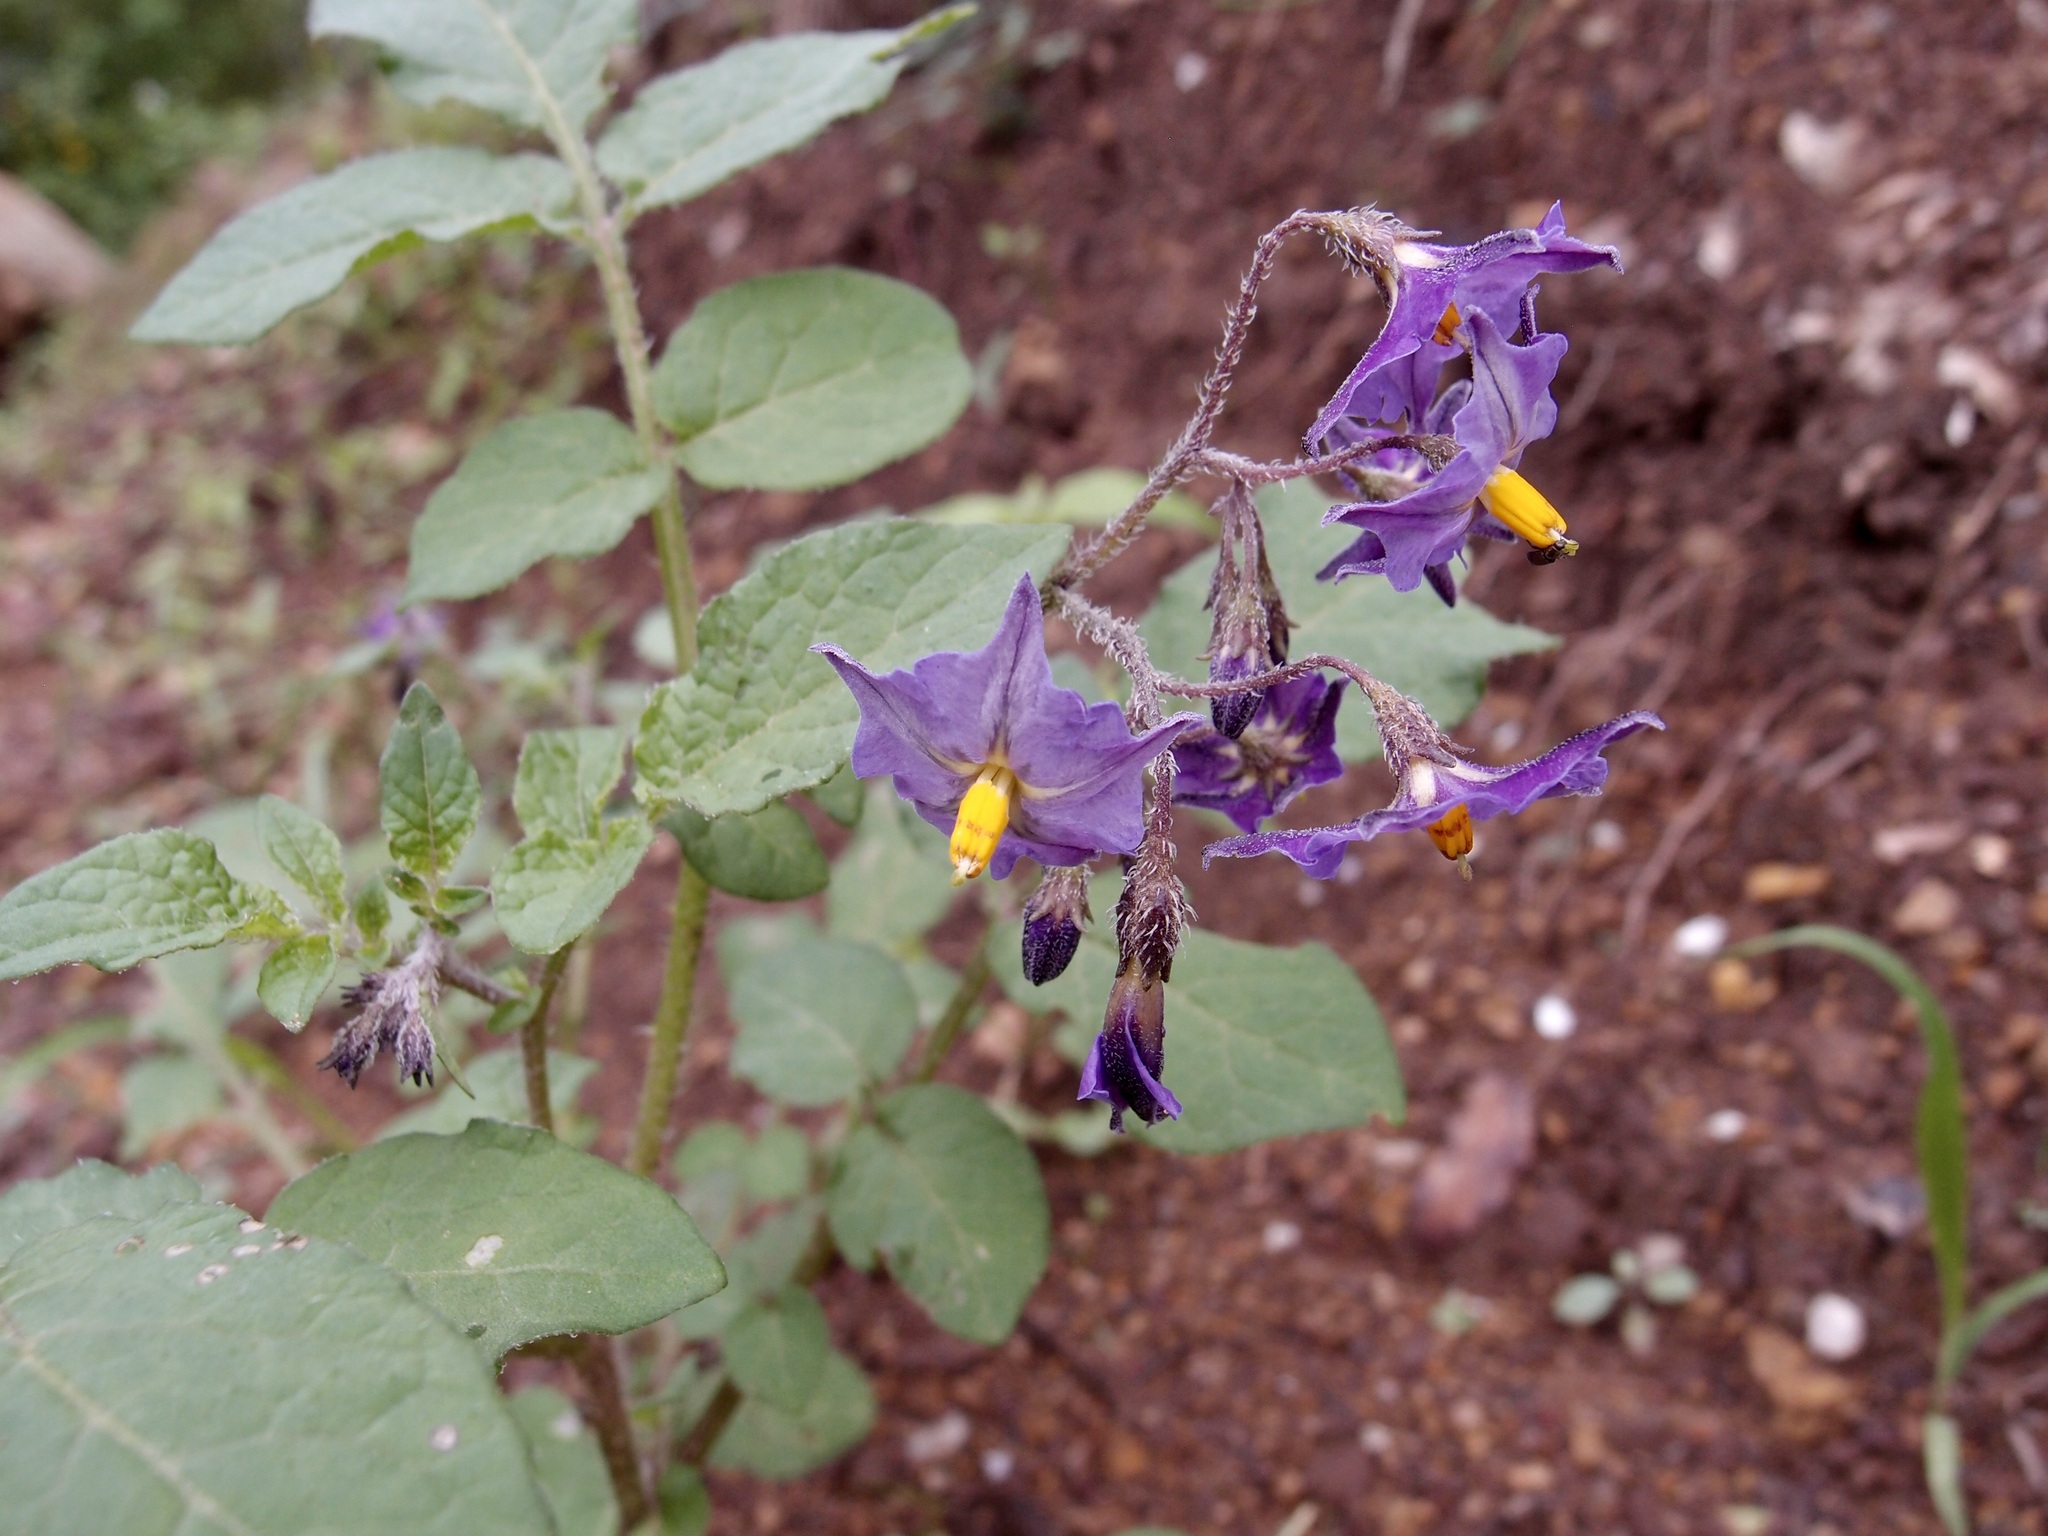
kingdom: Plantae
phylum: Tracheophyta
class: Magnoliopsida
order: Solanales
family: Solanaceae
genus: Solanum
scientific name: Solanum stoloniferum
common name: Fendler's nighshade
